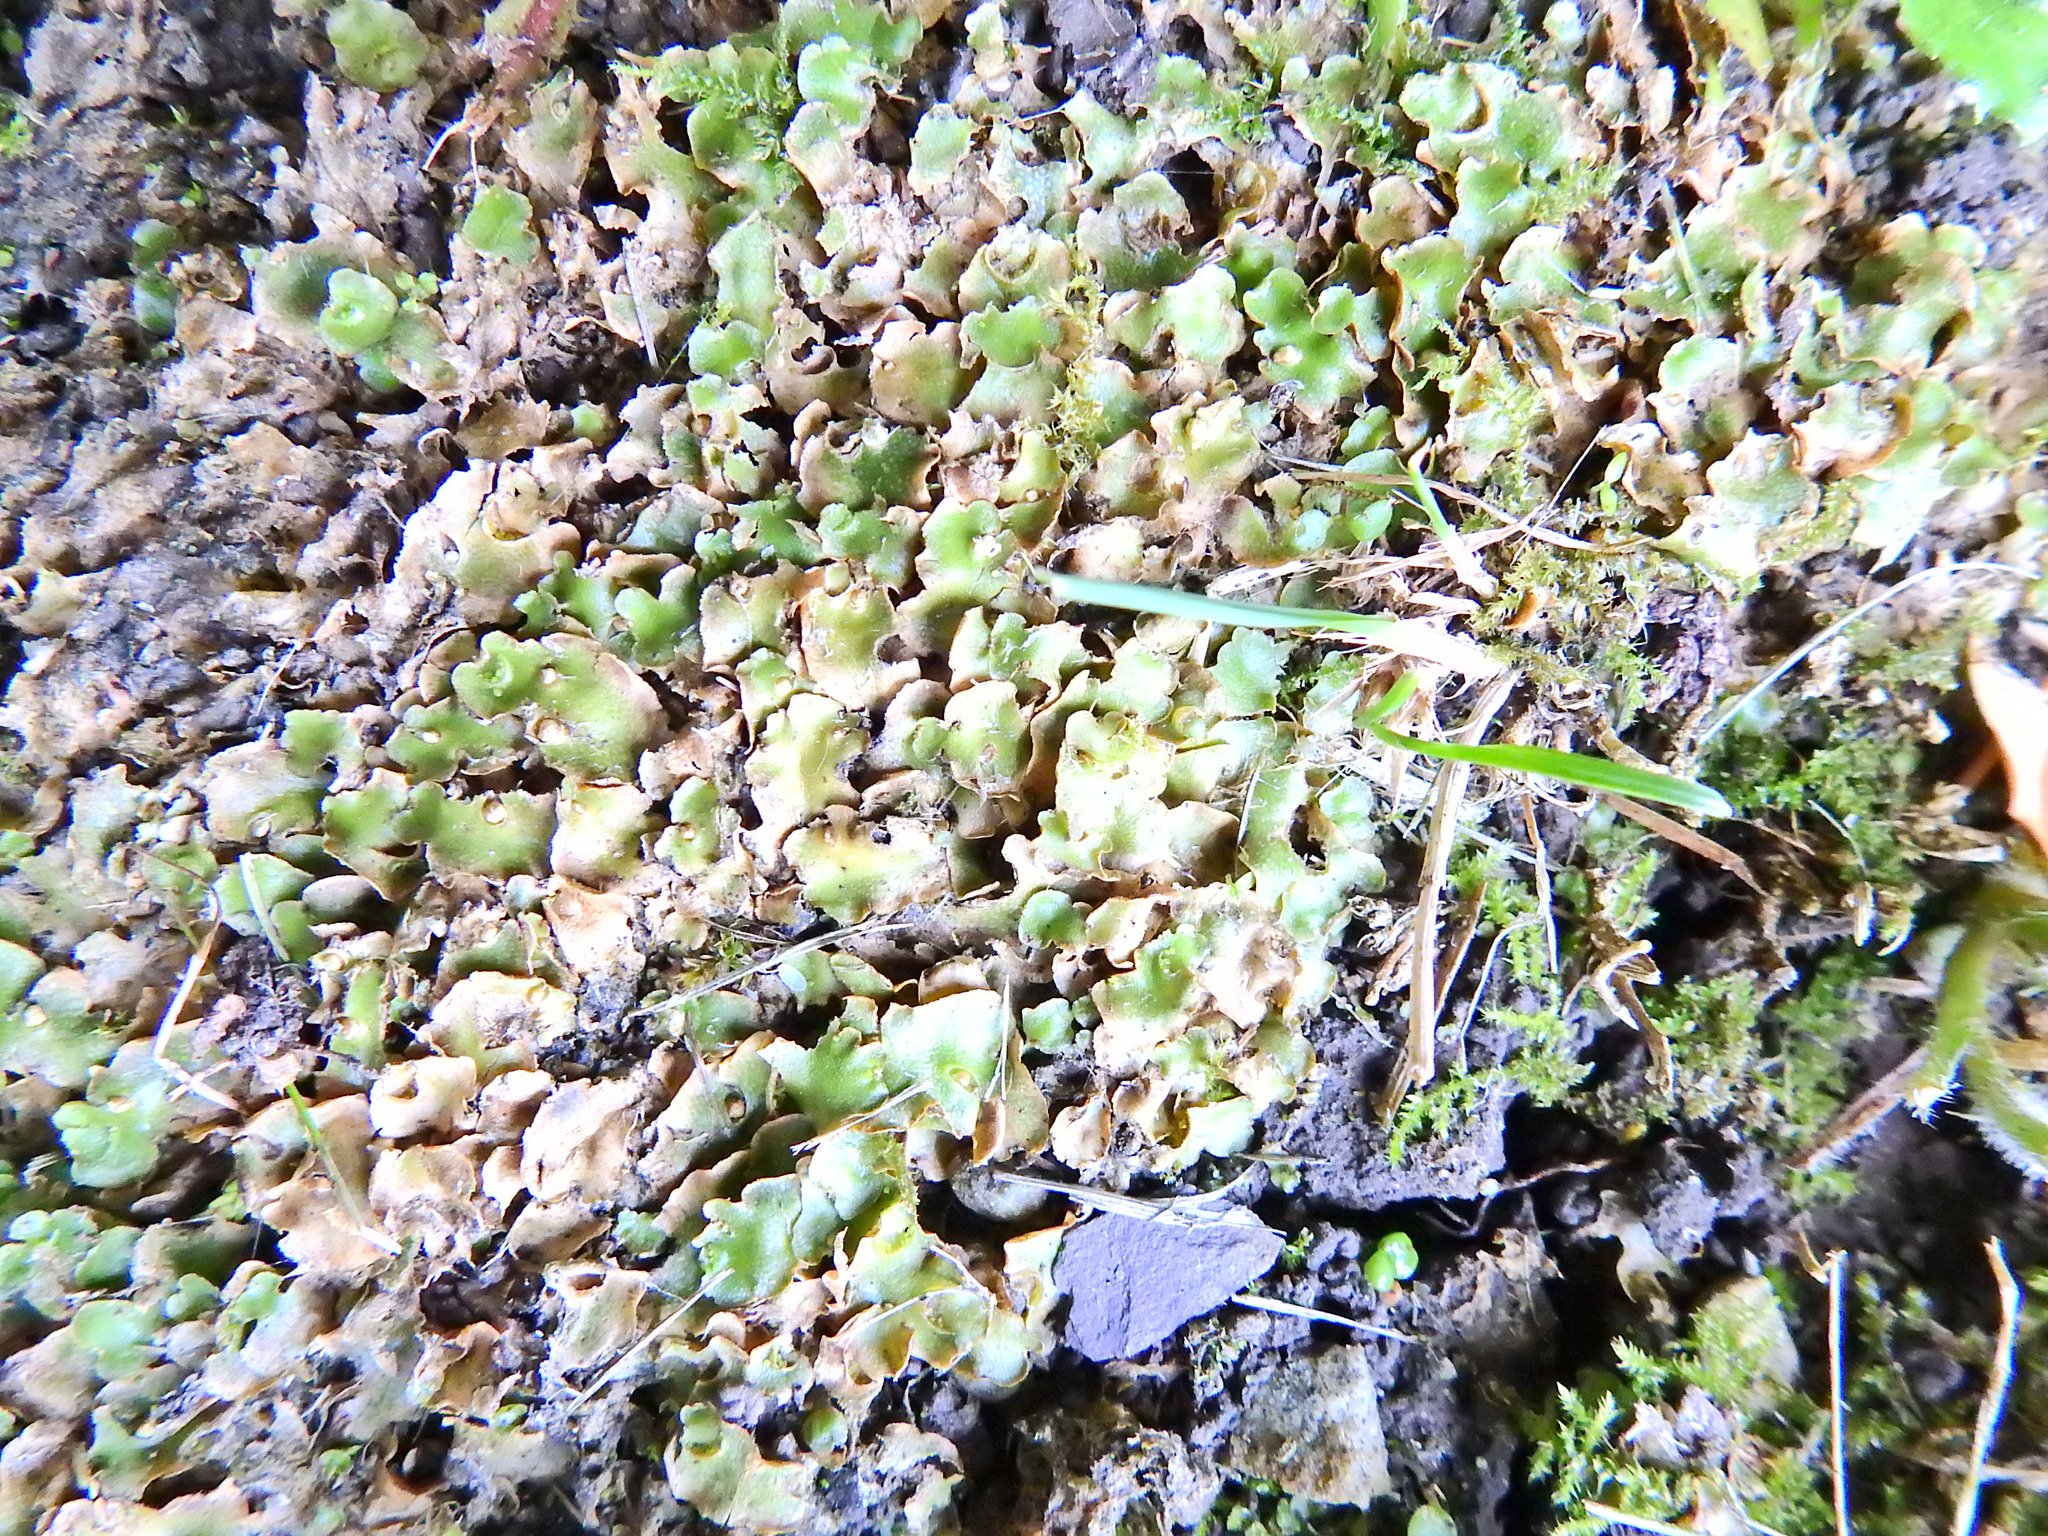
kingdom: Plantae
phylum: Marchantiophyta
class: Marchantiopsida
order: Lunulariales
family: Lunulariaceae
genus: Lunularia
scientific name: Lunularia cruciata
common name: Crescent-cup liverwort
